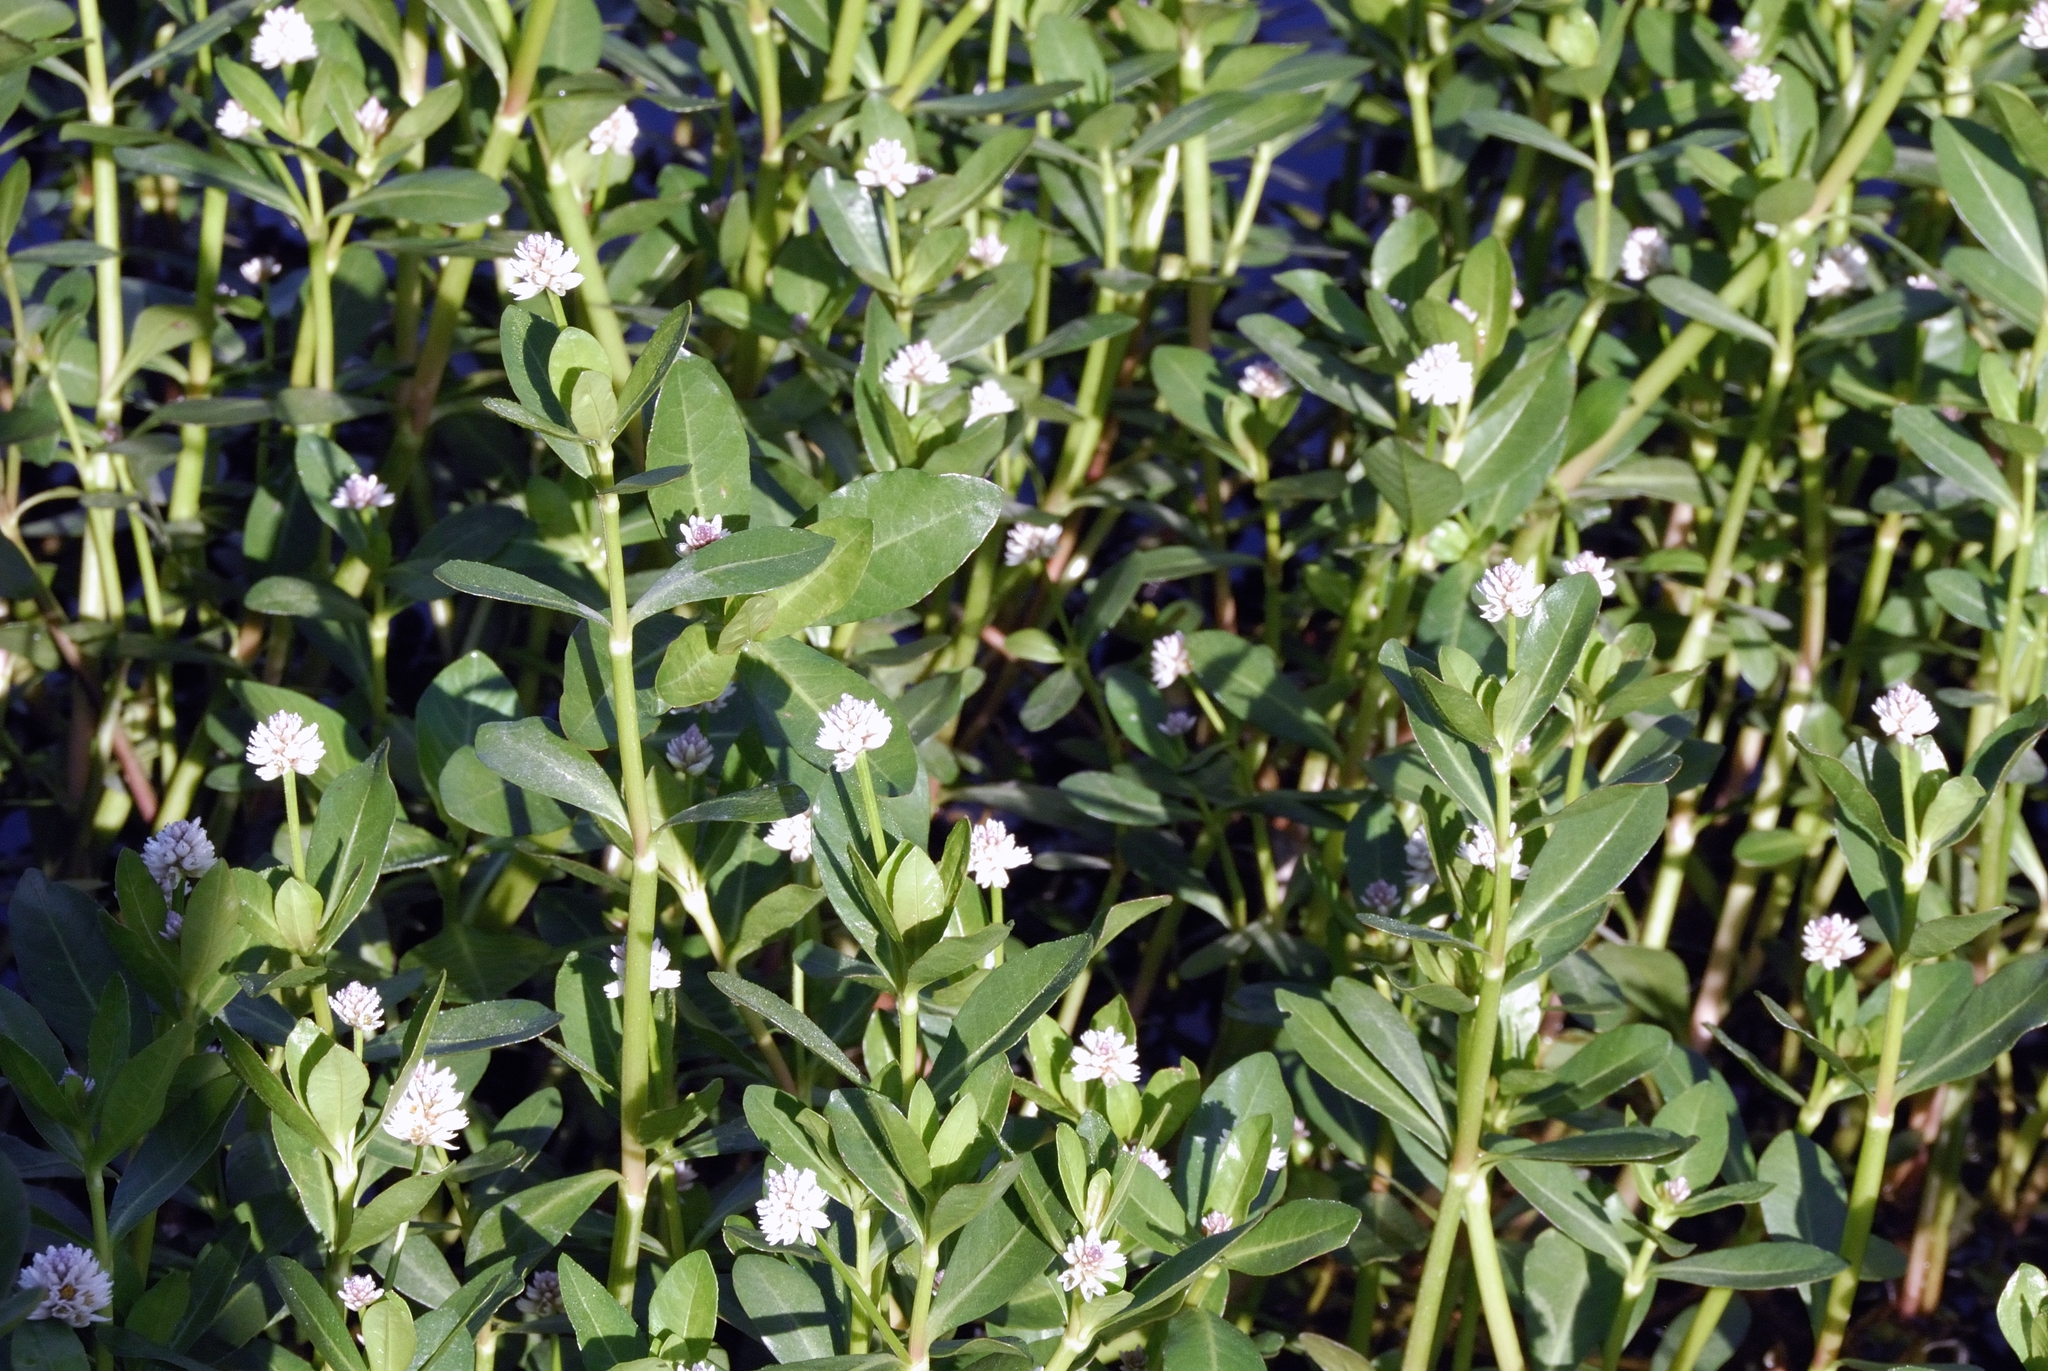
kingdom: Plantae
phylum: Tracheophyta
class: Magnoliopsida
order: Caryophyllales
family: Amaranthaceae
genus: Alternanthera
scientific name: Alternanthera philoxeroides
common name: Alligatorweed
